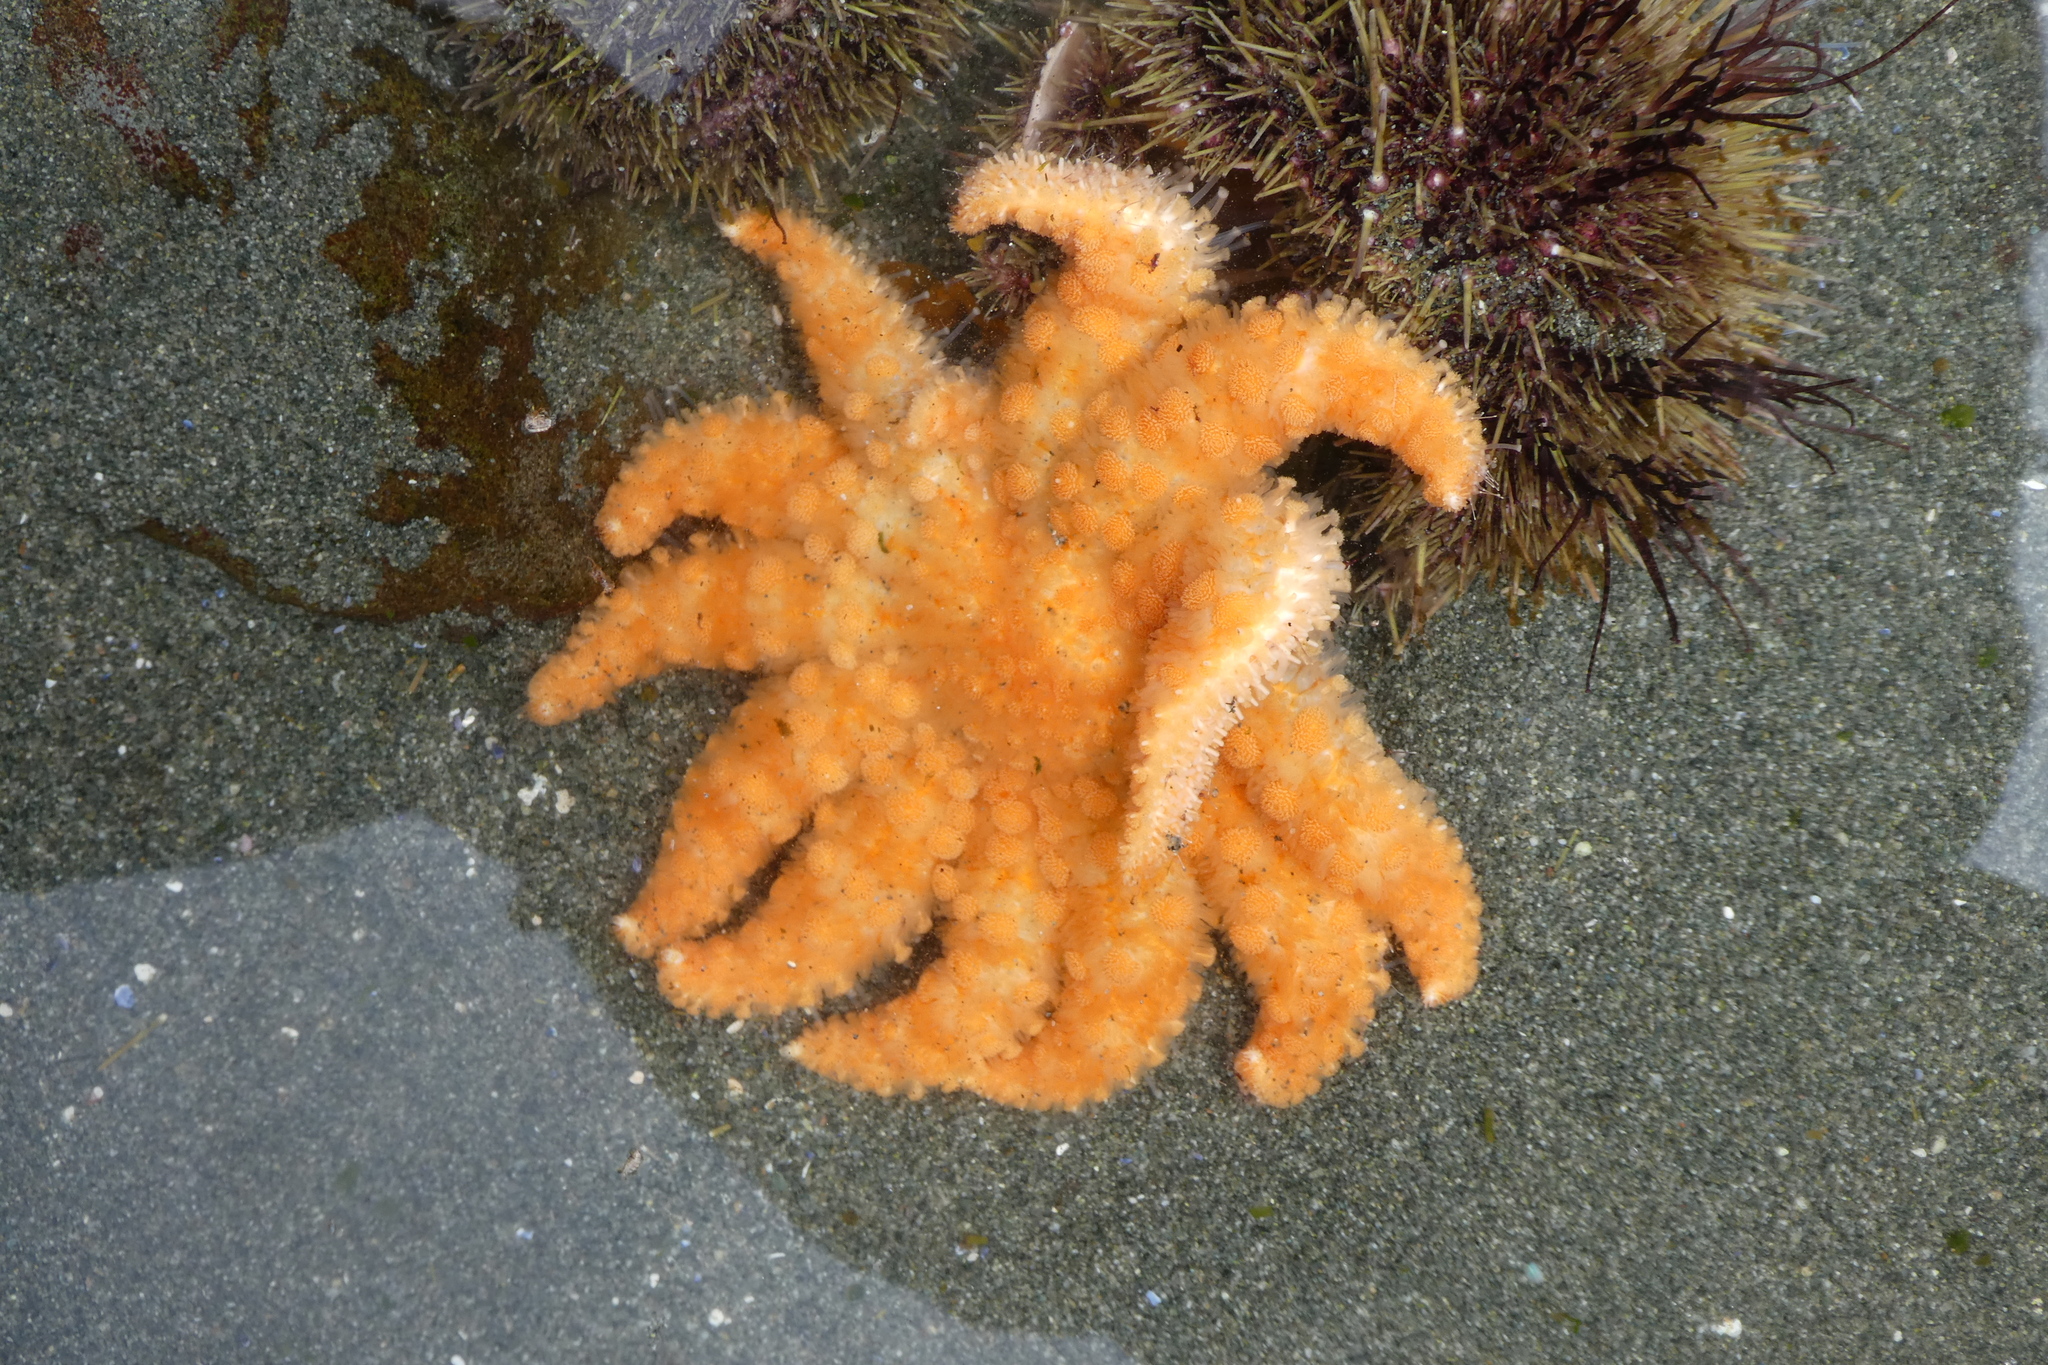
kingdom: Animalia
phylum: Echinodermata
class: Asteroidea
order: Forcipulatida
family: Asteriidae
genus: Pycnopodia
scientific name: Pycnopodia helianthoides
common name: Rag mop
